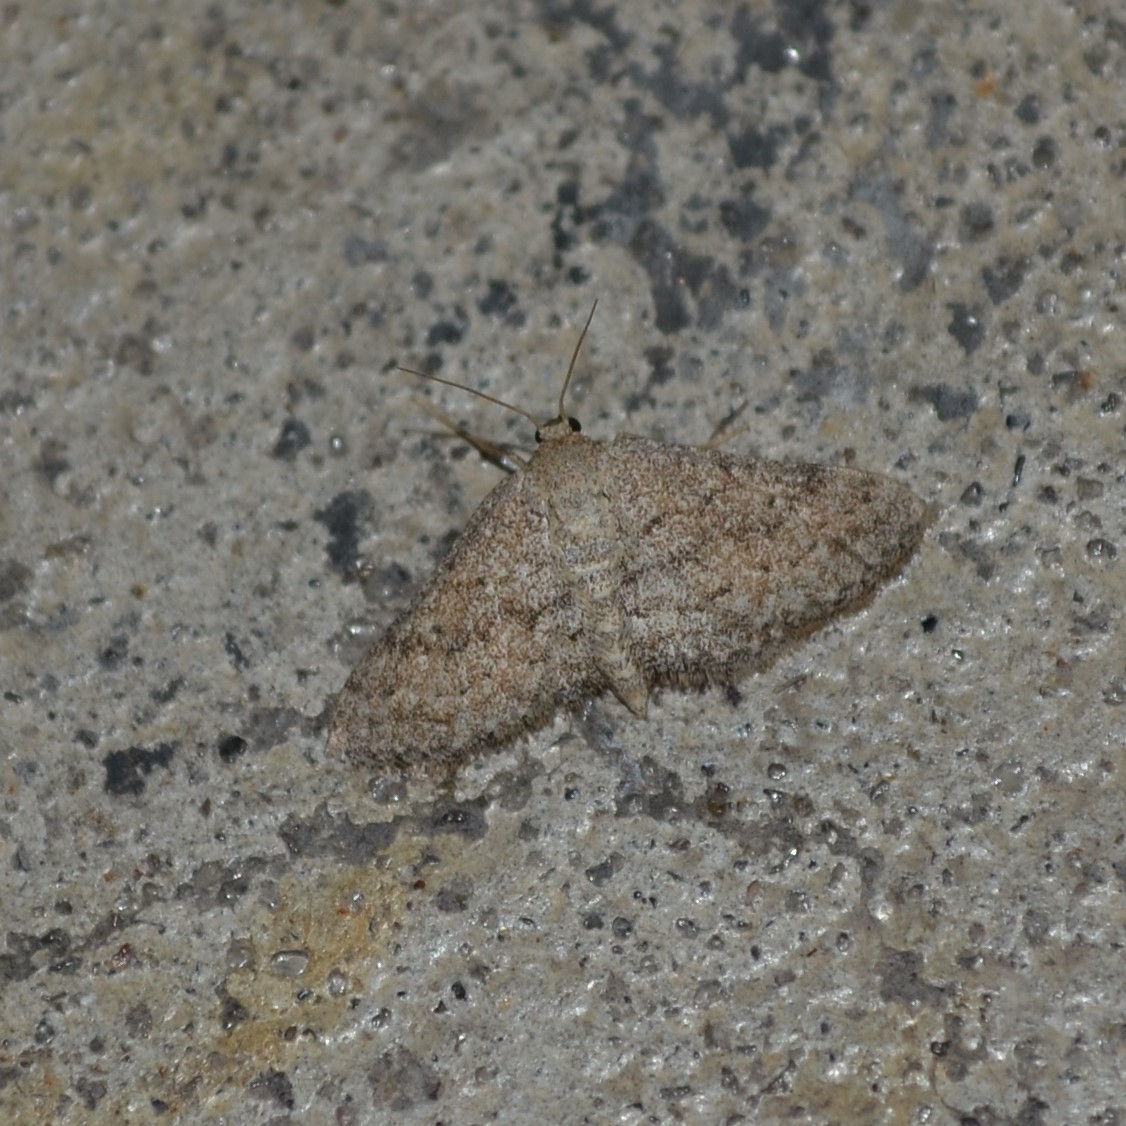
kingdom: Animalia
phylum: Arthropoda
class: Insecta
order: Lepidoptera
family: Geometridae
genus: Lobocleta
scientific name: Lobocleta ossularia
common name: Drab brown wave
